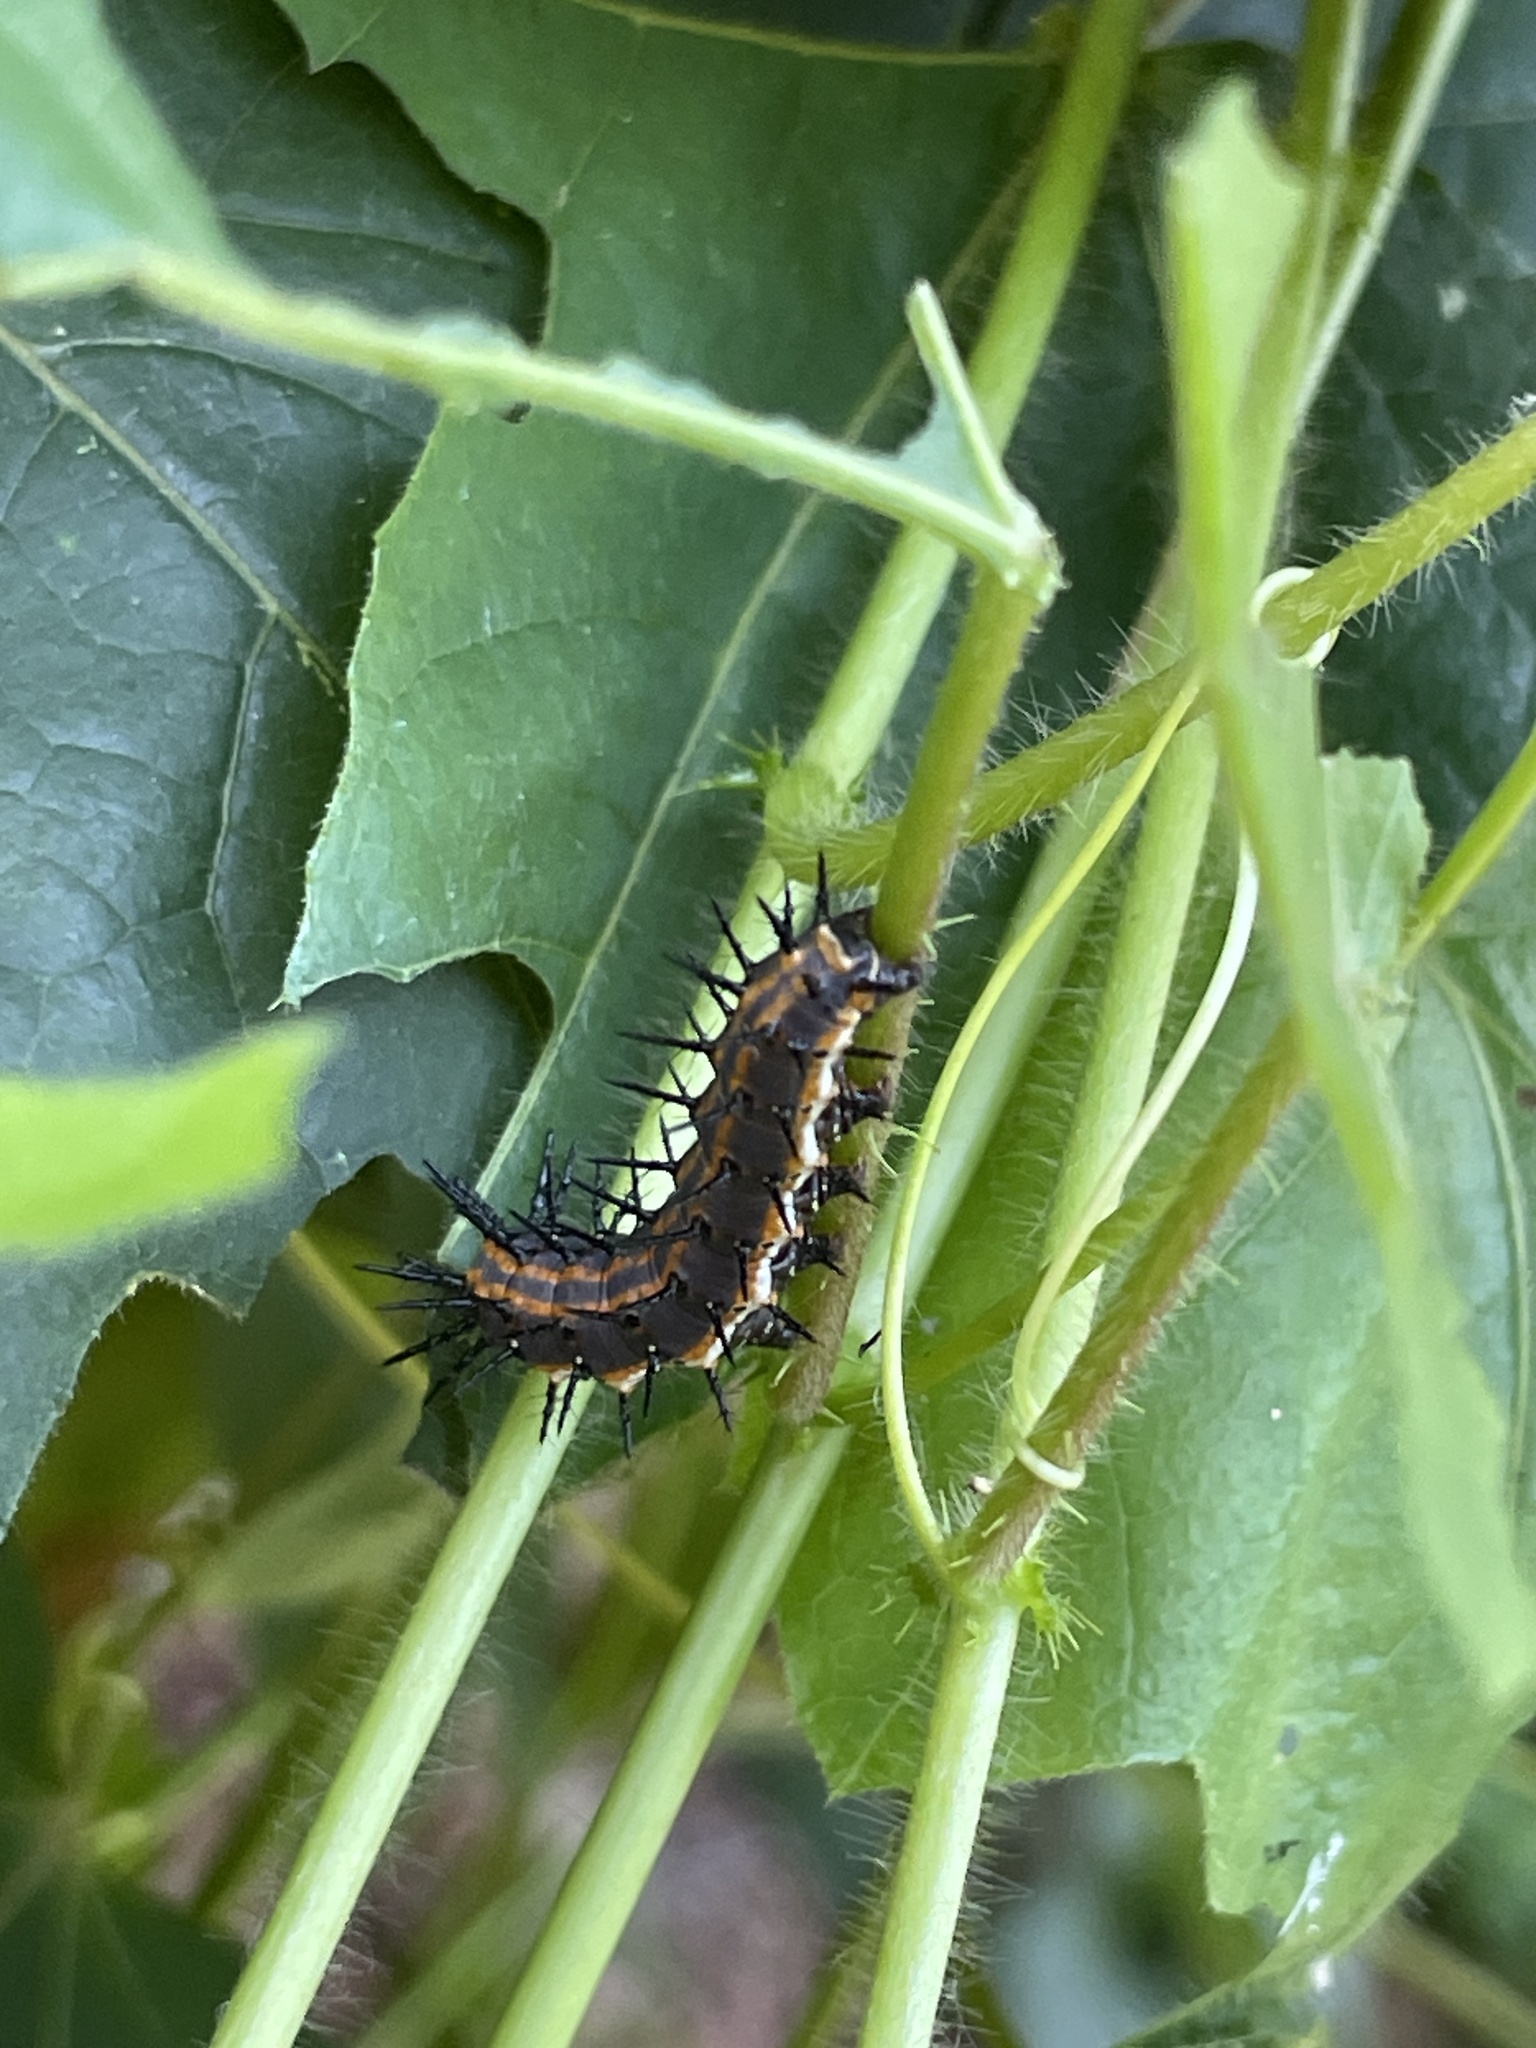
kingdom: Animalia
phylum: Arthropoda
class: Insecta
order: Lepidoptera
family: Nymphalidae
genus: Dione
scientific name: Dione vanillae
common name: Gulf fritillary
